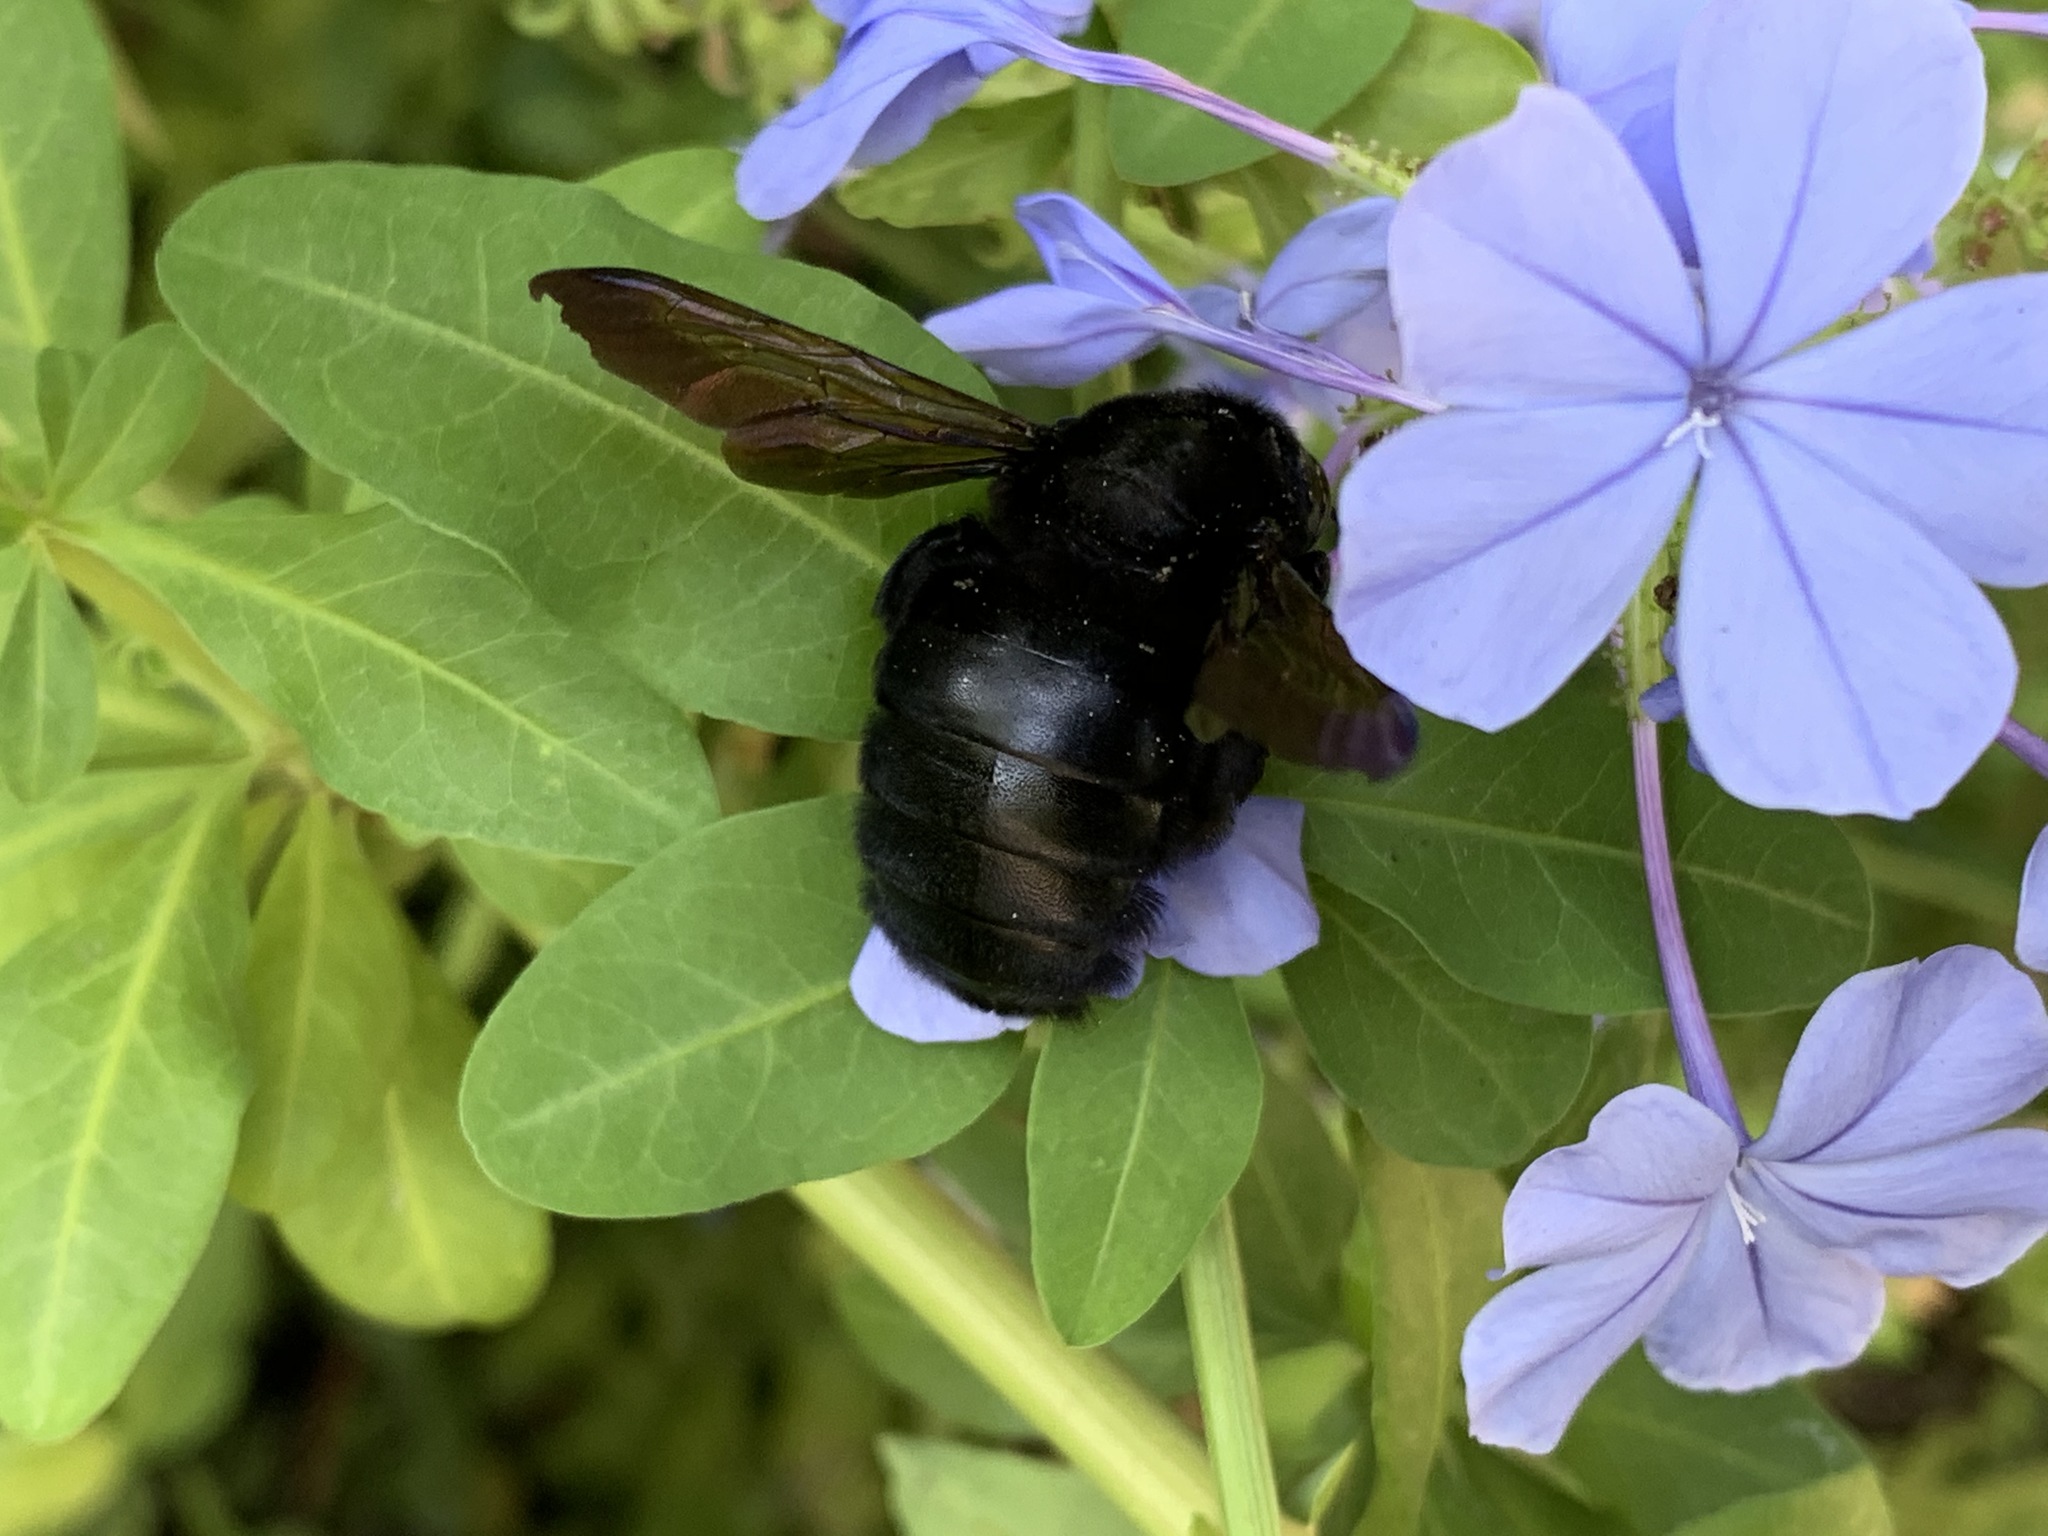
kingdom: Animalia
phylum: Arthropoda
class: Insecta
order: Hymenoptera
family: Apidae
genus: Xylocopa
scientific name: Xylocopa sonorina
